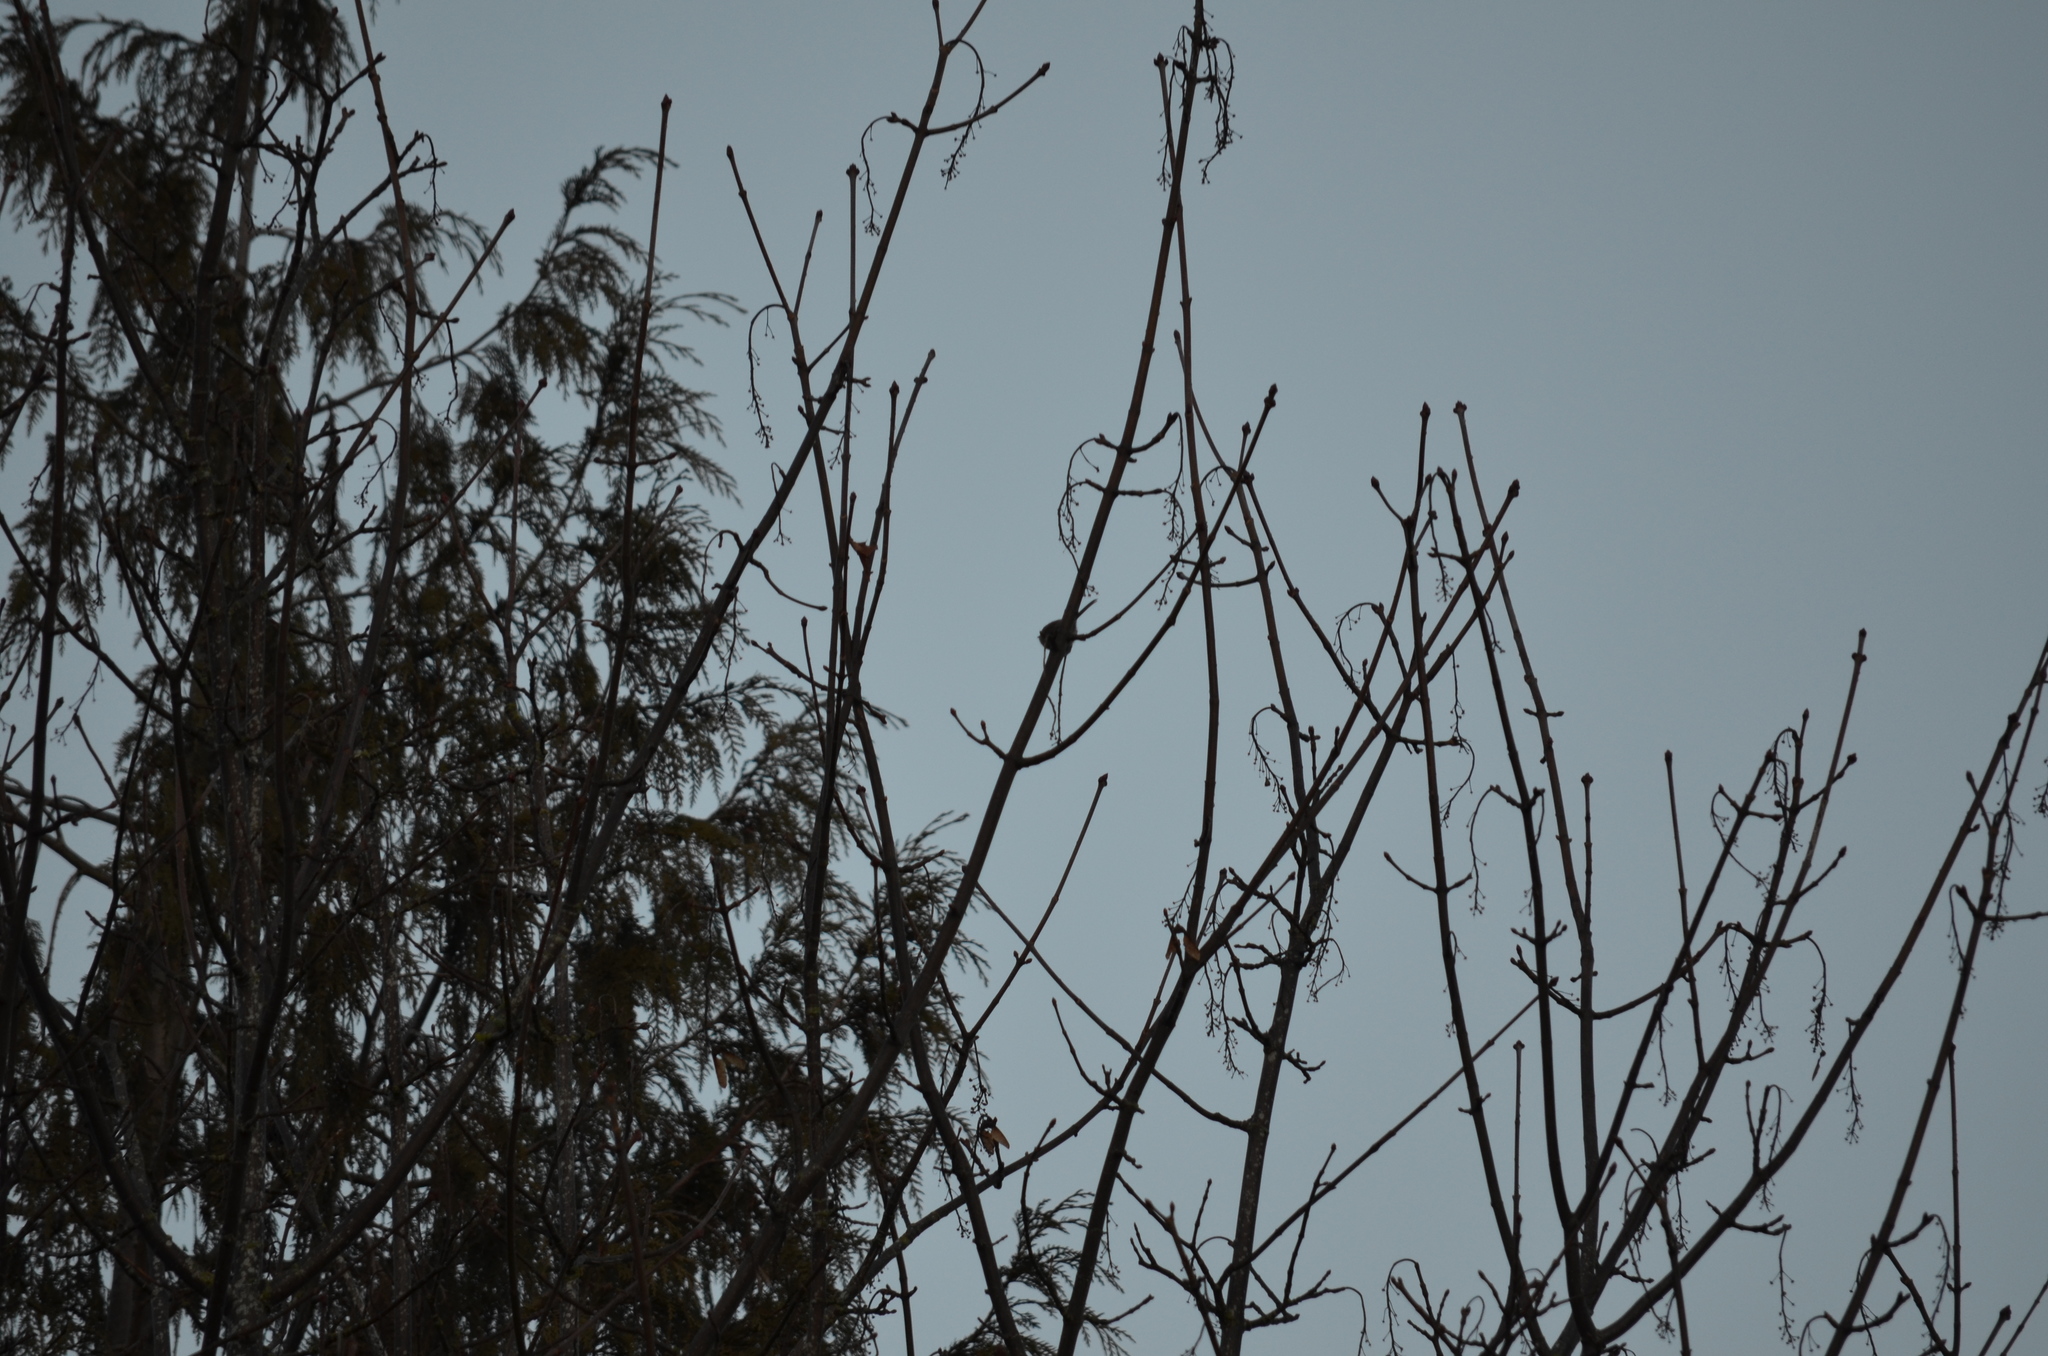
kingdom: Animalia
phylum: Chordata
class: Aves
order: Passeriformes
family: Aegithalidae
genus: Psaltriparus
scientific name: Psaltriparus minimus
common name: American bushtit
